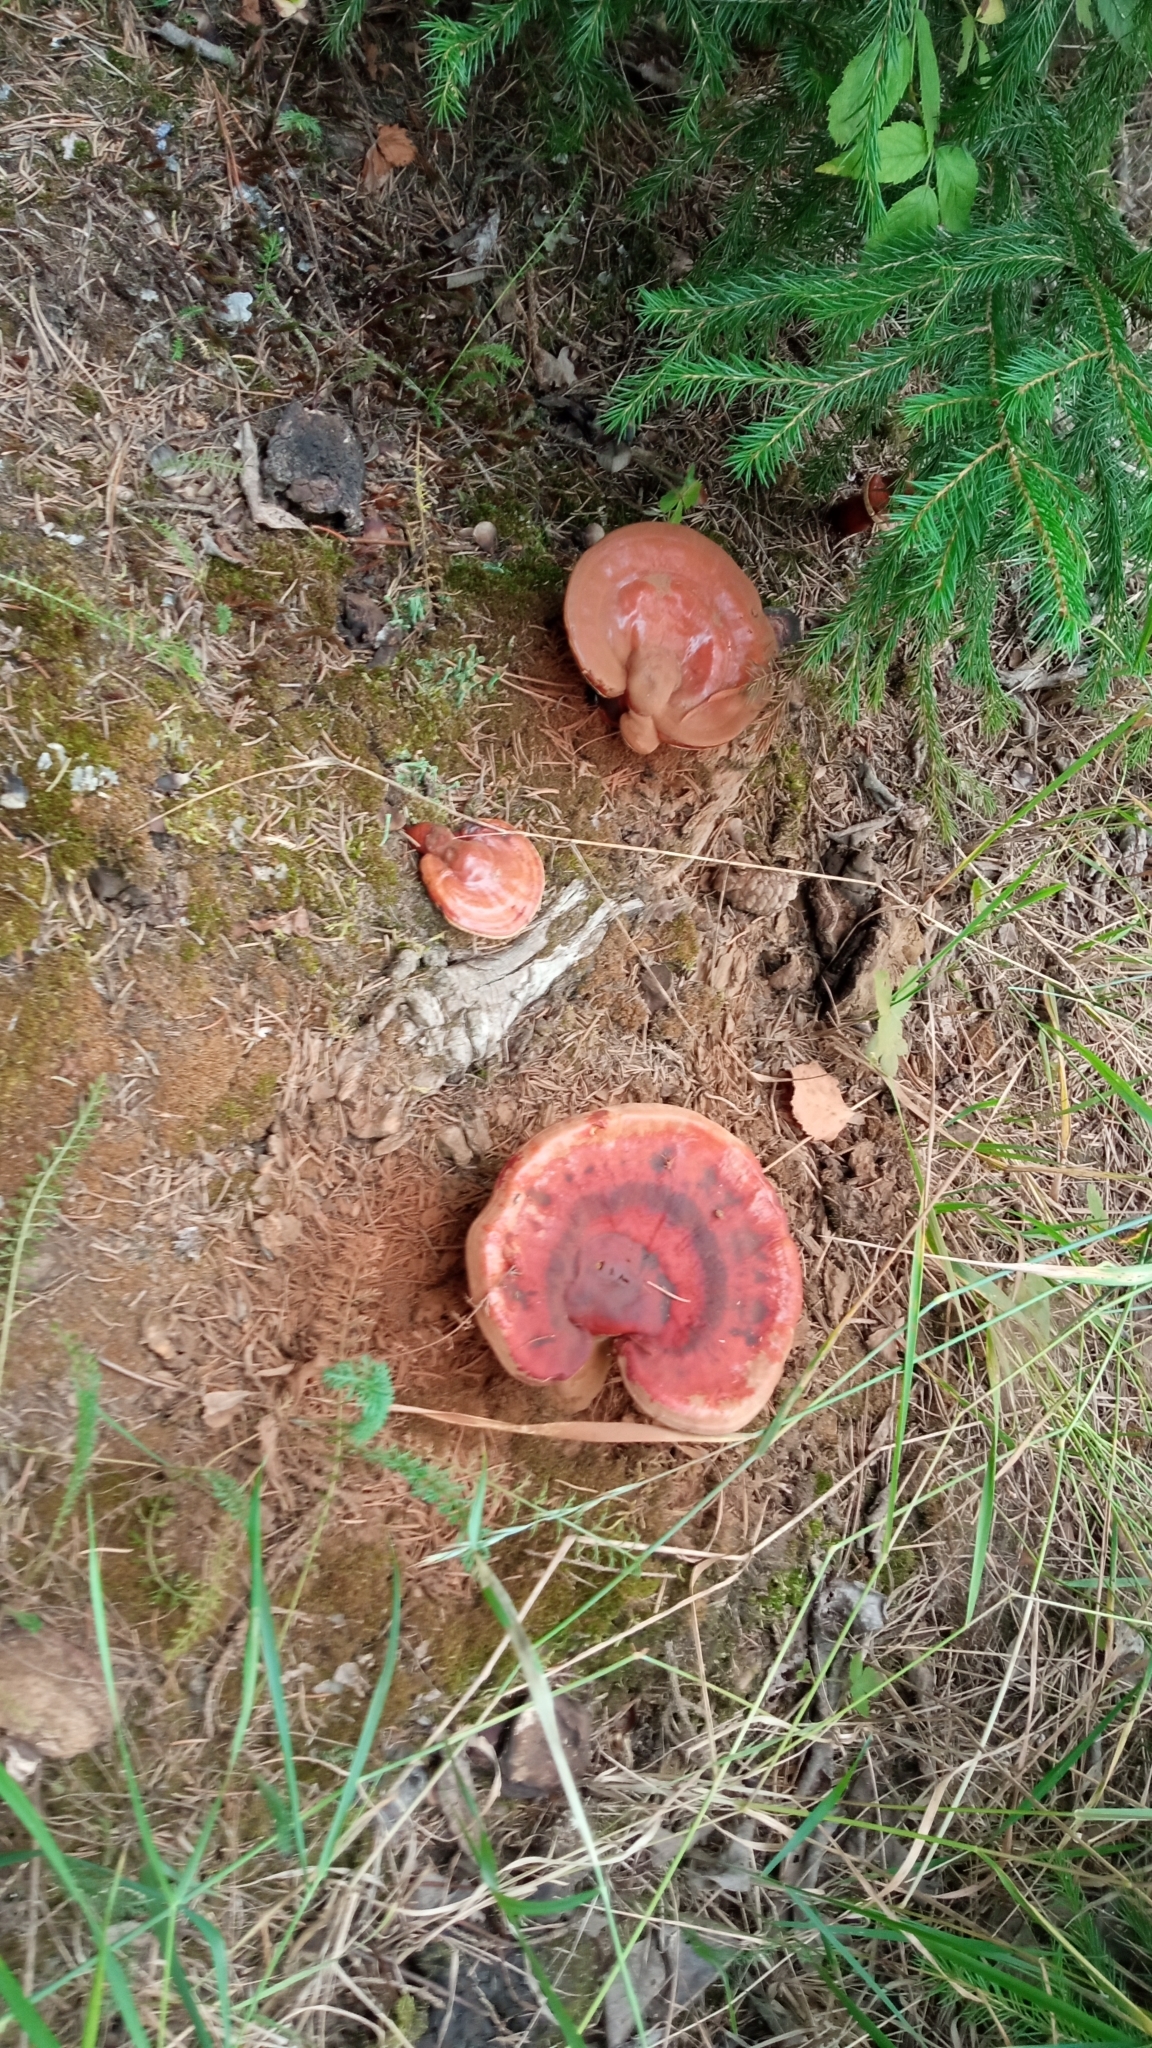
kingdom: Fungi
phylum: Basidiomycota
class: Agaricomycetes
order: Polyporales
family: Polyporaceae
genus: Ganoderma
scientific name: Ganoderma lucidum
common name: Lacquered bracket
